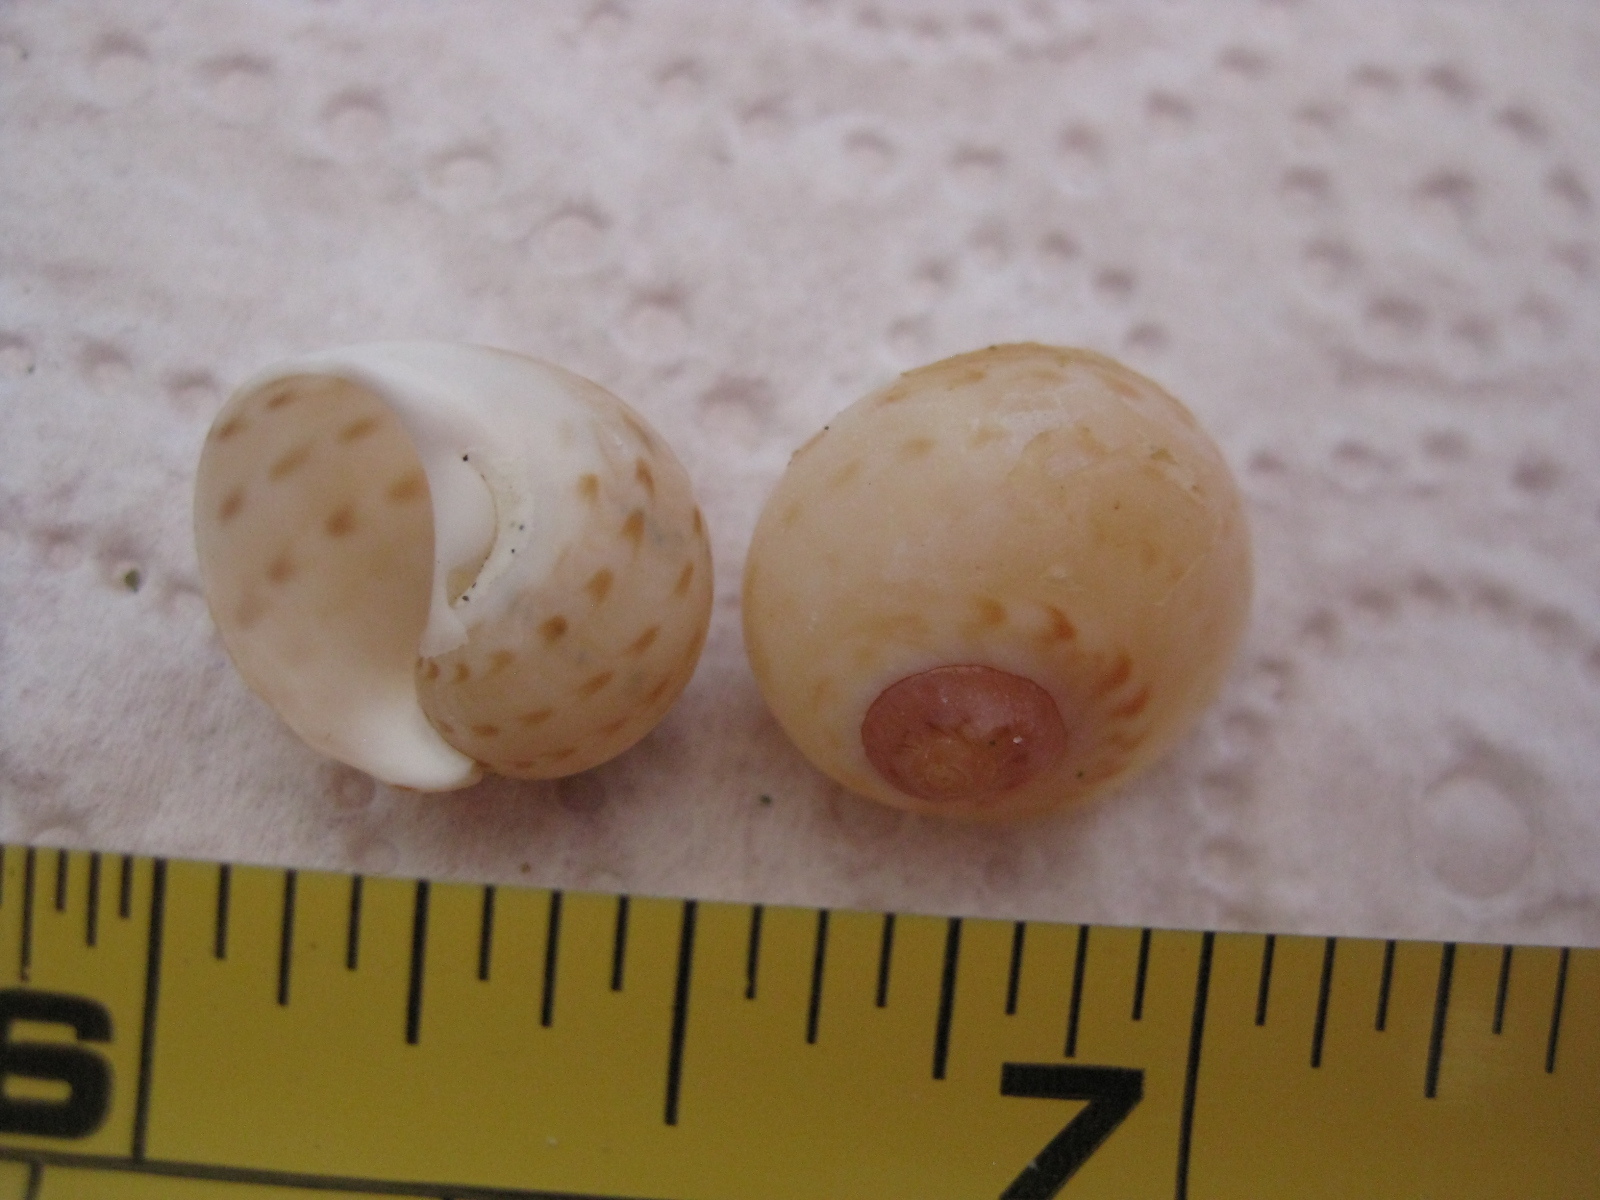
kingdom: Animalia
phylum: Mollusca
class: Gastropoda
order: Littorinimorpha
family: Naticidae
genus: Tanea
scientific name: Tanea zelandica
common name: New zealand moonsnail
